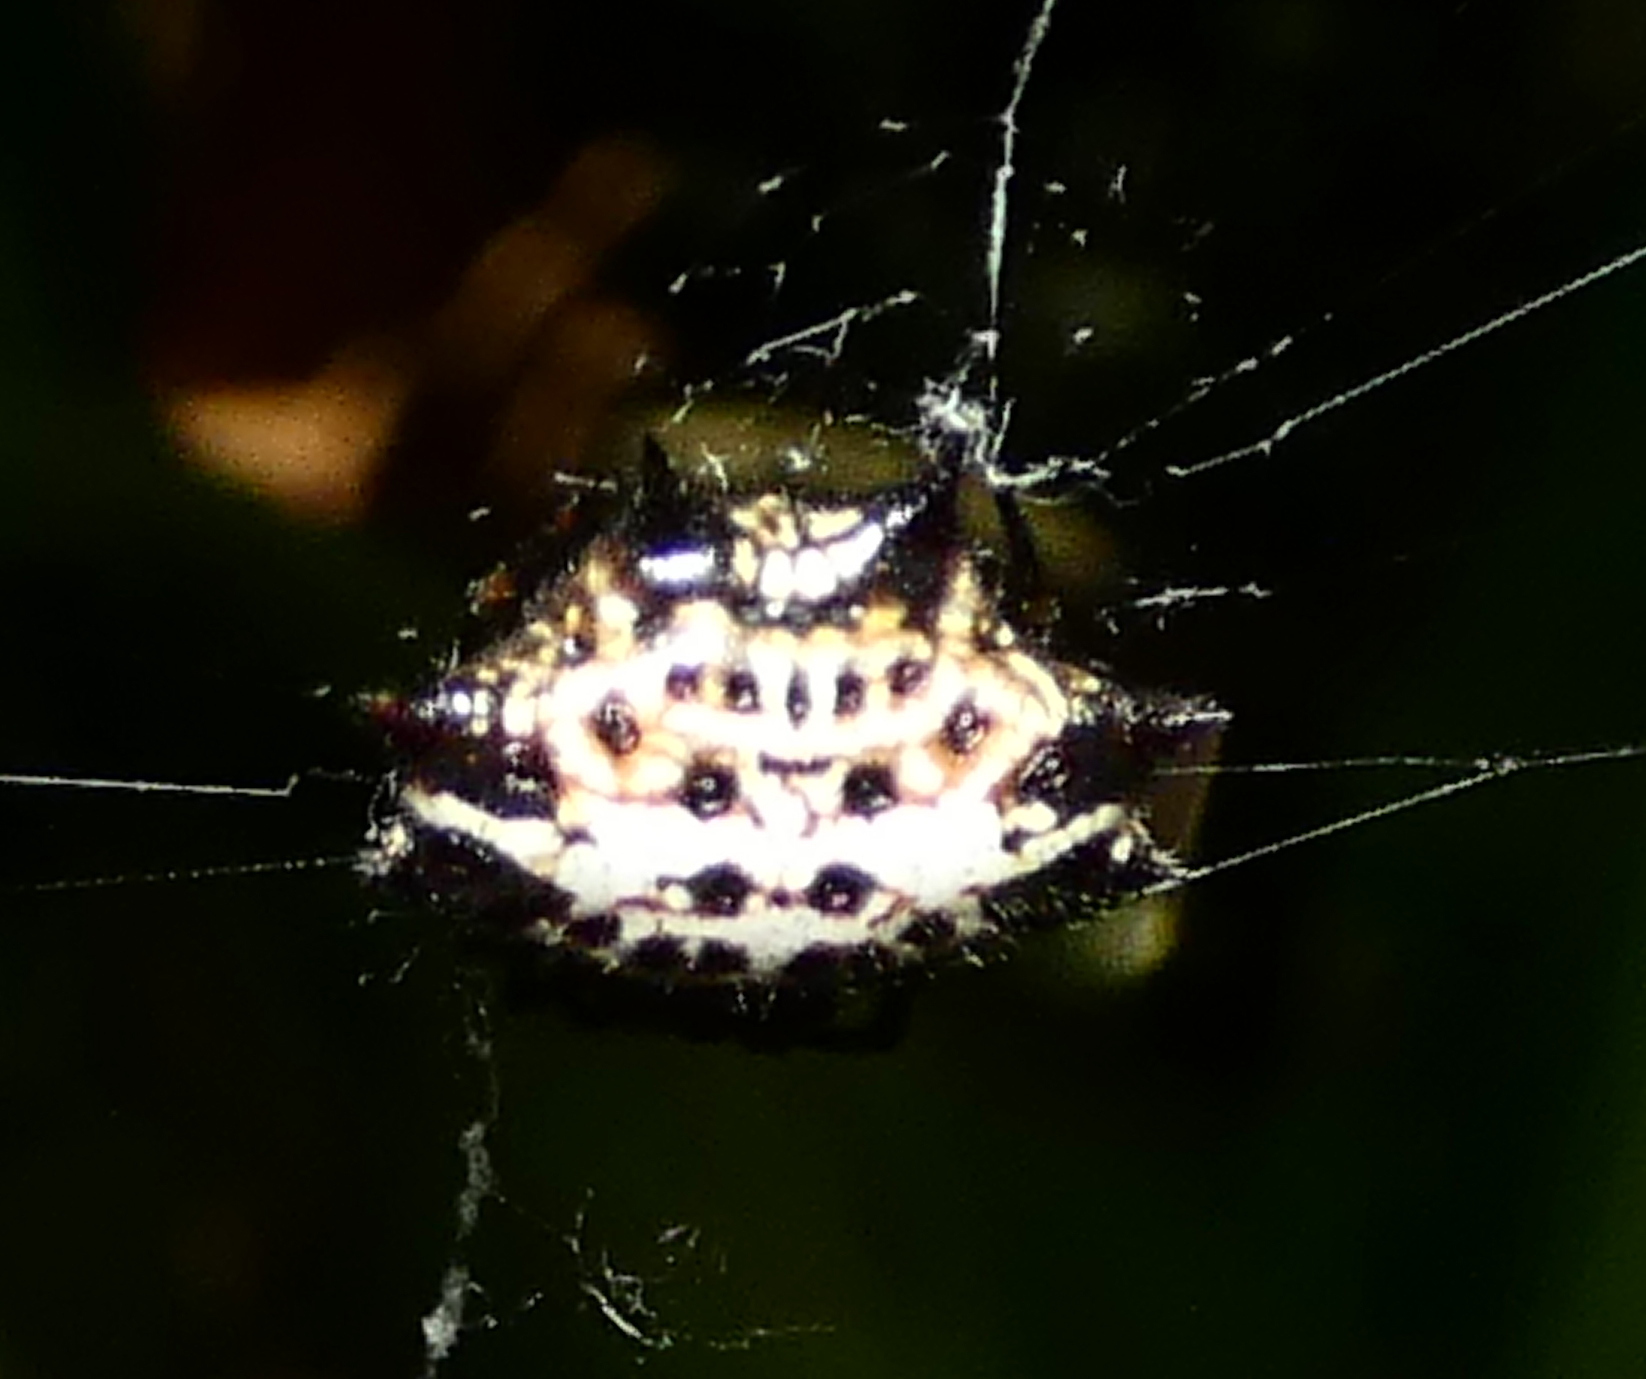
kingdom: Animalia
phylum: Arthropoda
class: Arachnida
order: Araneae
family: Araneidae
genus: Gasteracantha
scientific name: Gasteracantha cancriformis
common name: Orb weavers
